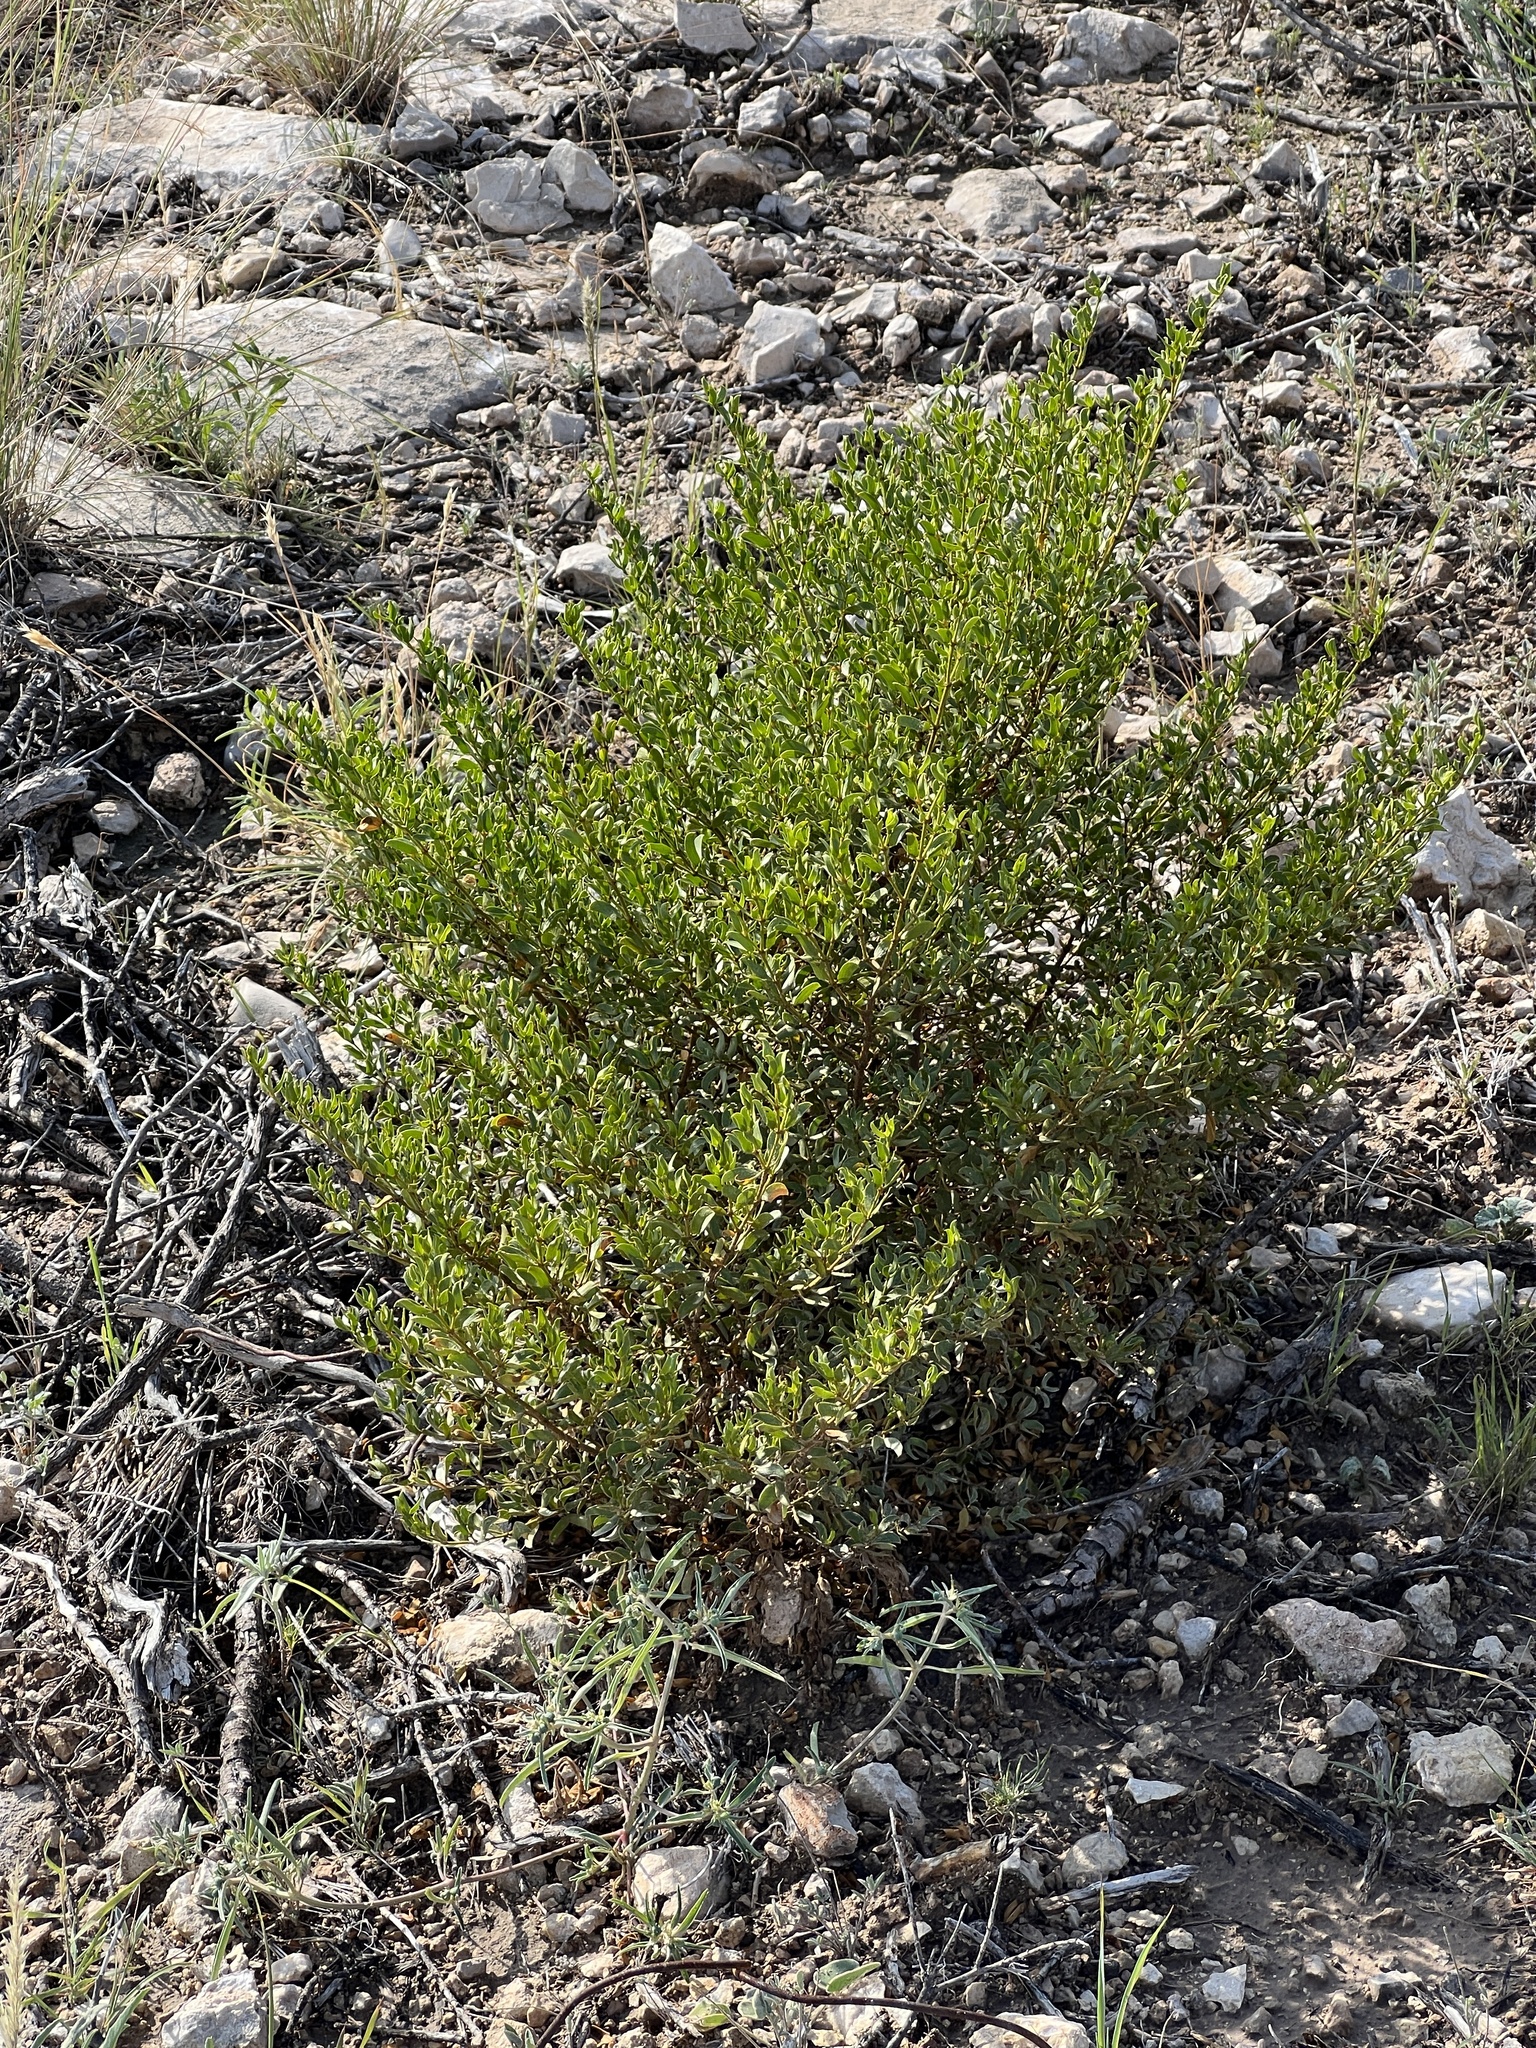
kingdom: Plantae
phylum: Tracheophyta
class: Magnoliopsida
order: Zygophyllales
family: Zygophyllaceae
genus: Larrea
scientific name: Larrea tridentata
